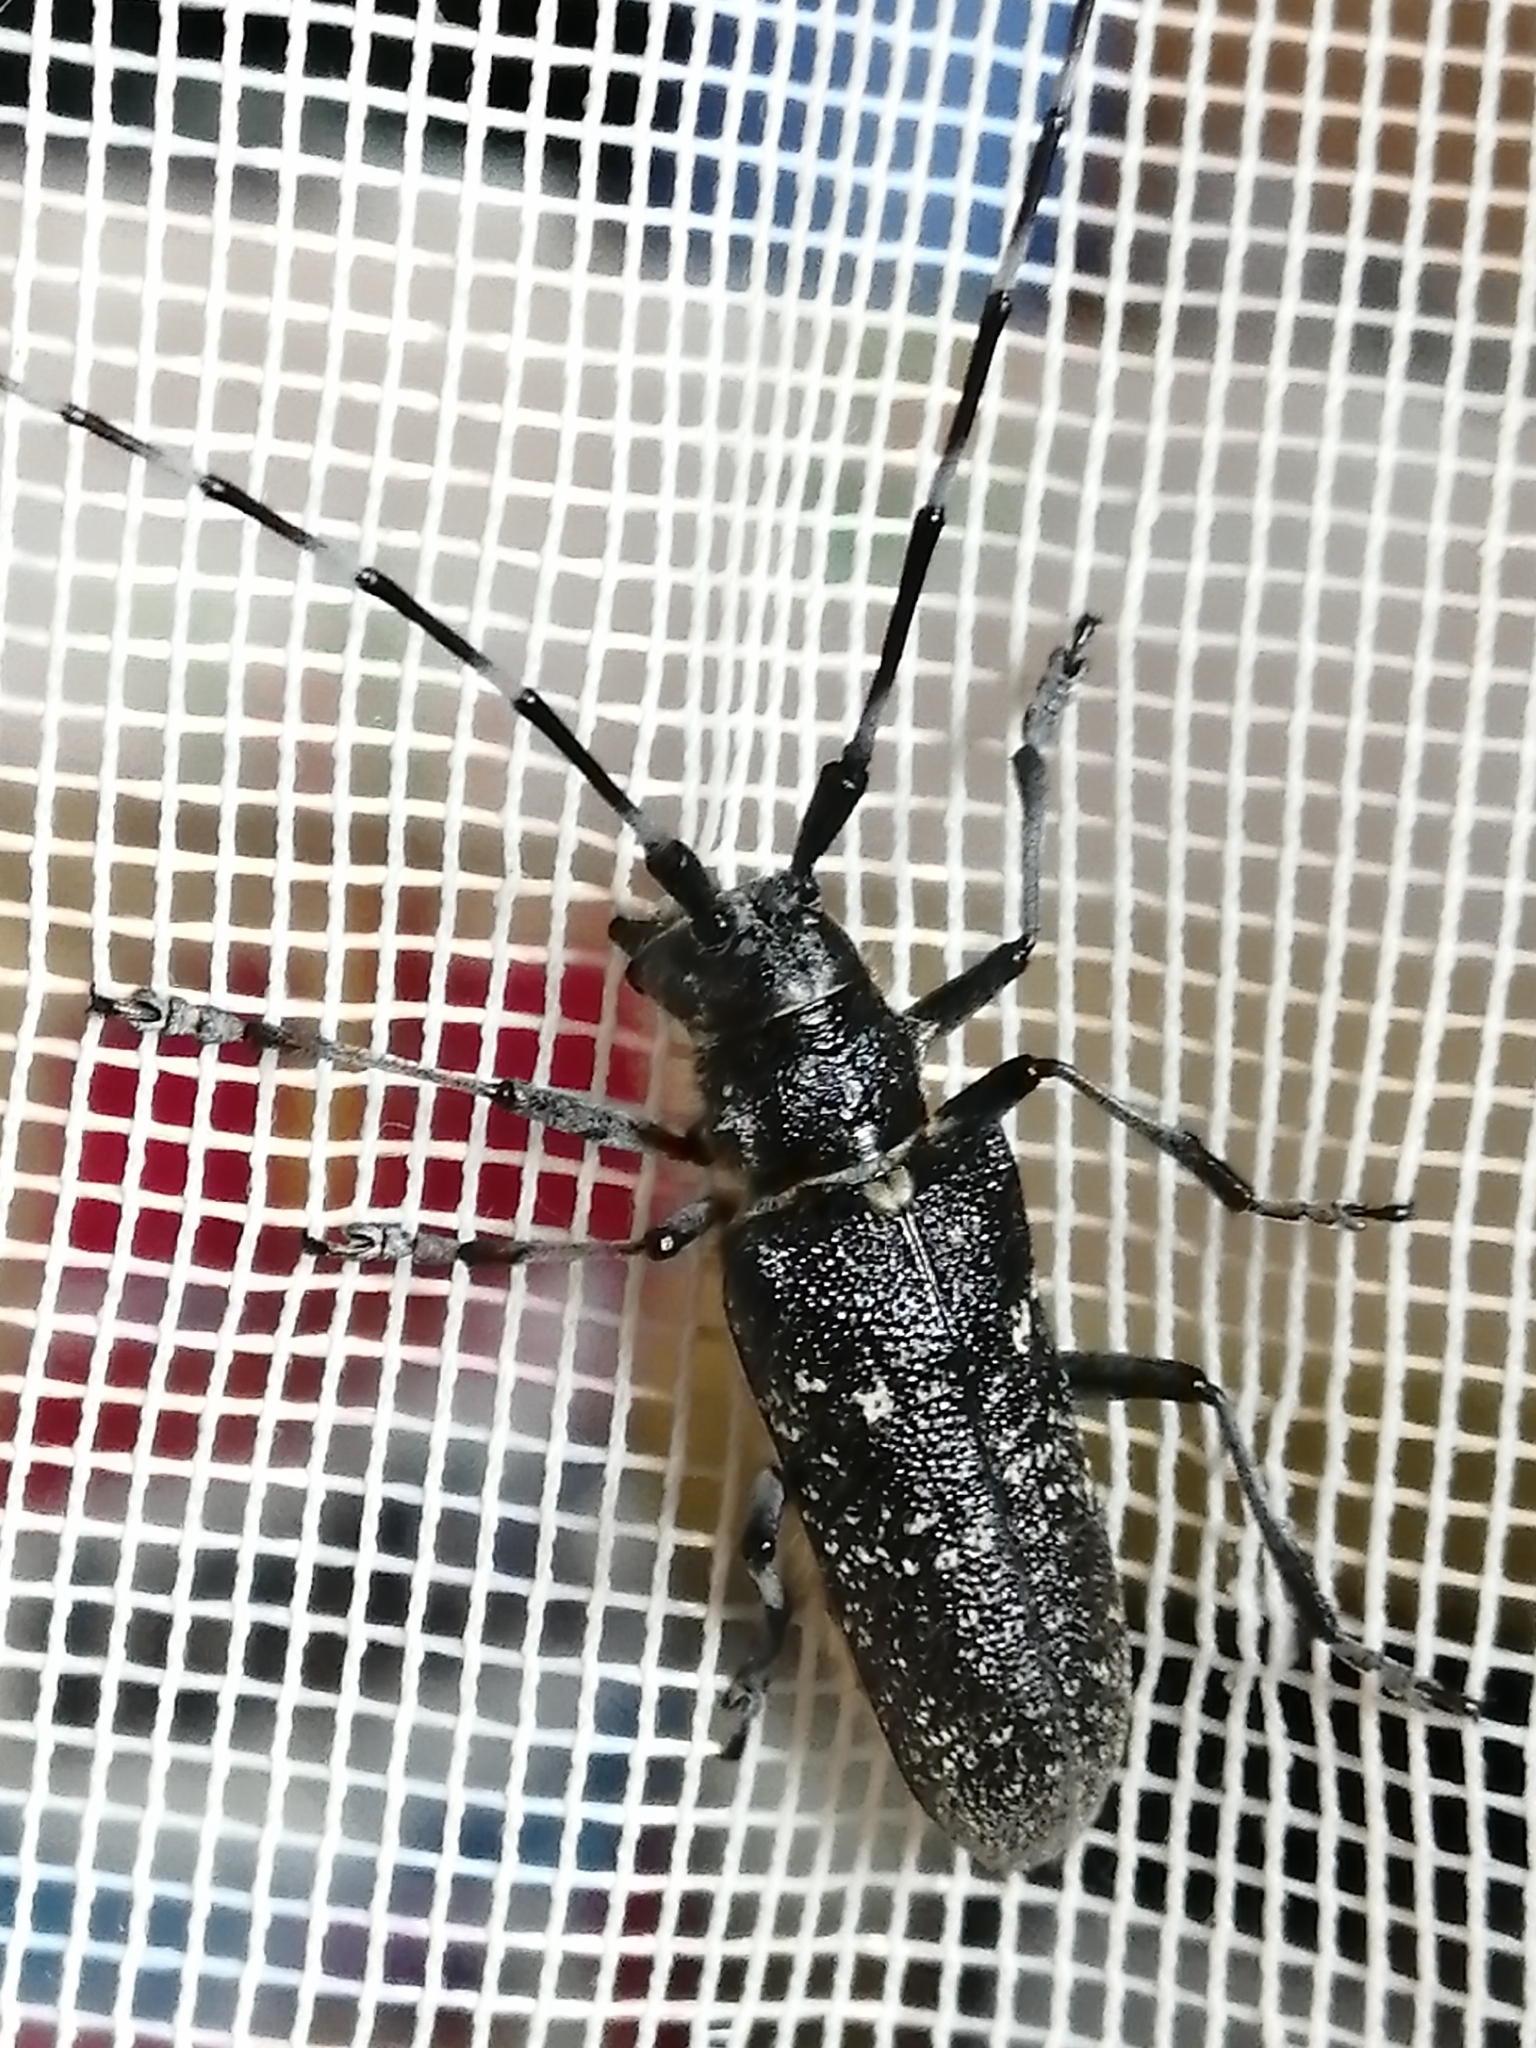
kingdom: Animalia
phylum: Arthropoda
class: Insecta
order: Coleoptera
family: Cerambycidae
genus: Monochamus
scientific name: Monochamus sutor
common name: Pine sawyer
